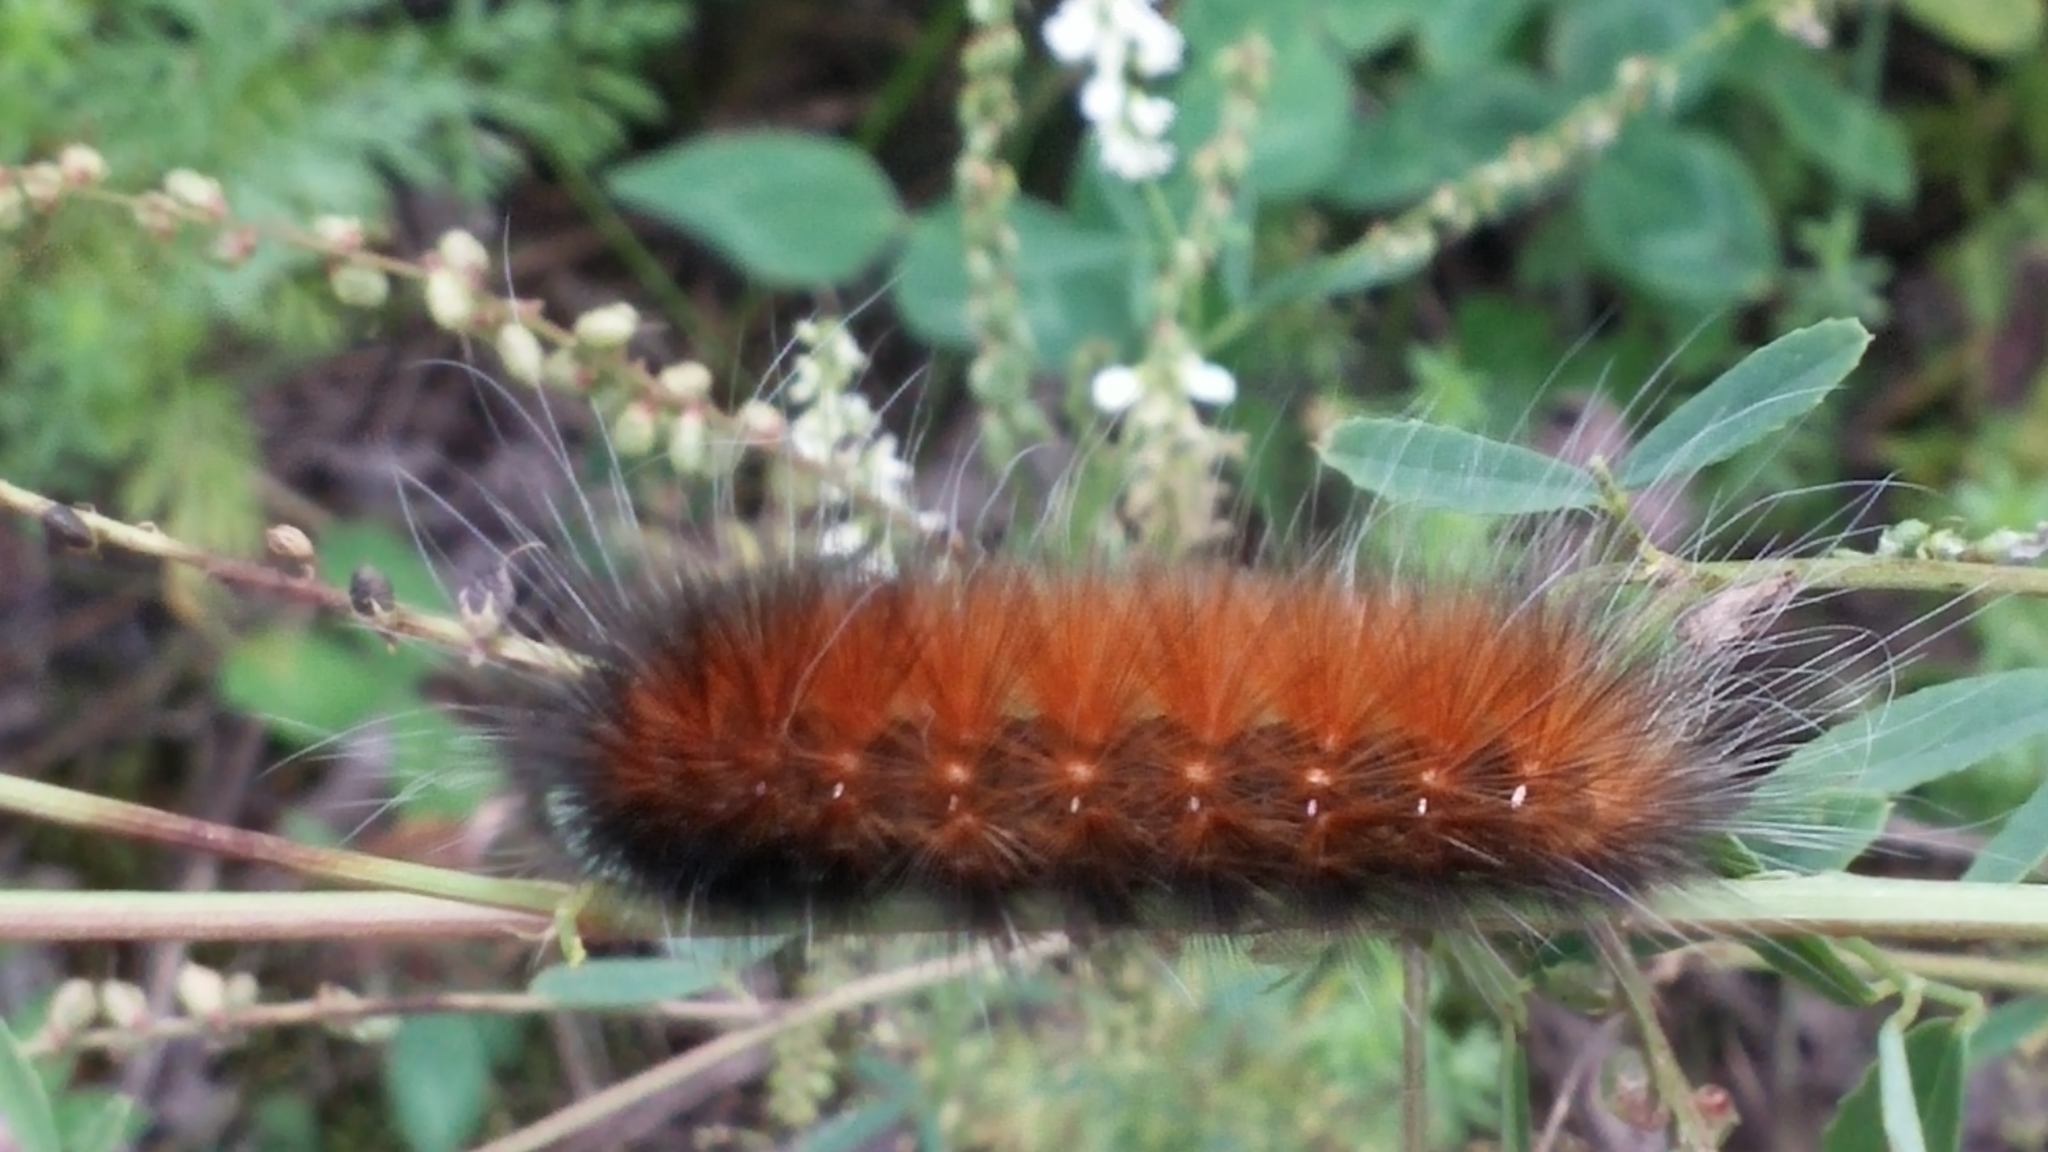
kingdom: Animalia
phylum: Arthropoda
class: Insecta
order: Lepidoptera
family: Erebidae
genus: Spilosoma
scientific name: Spilosoma virginica
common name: Virginia tiger moth
